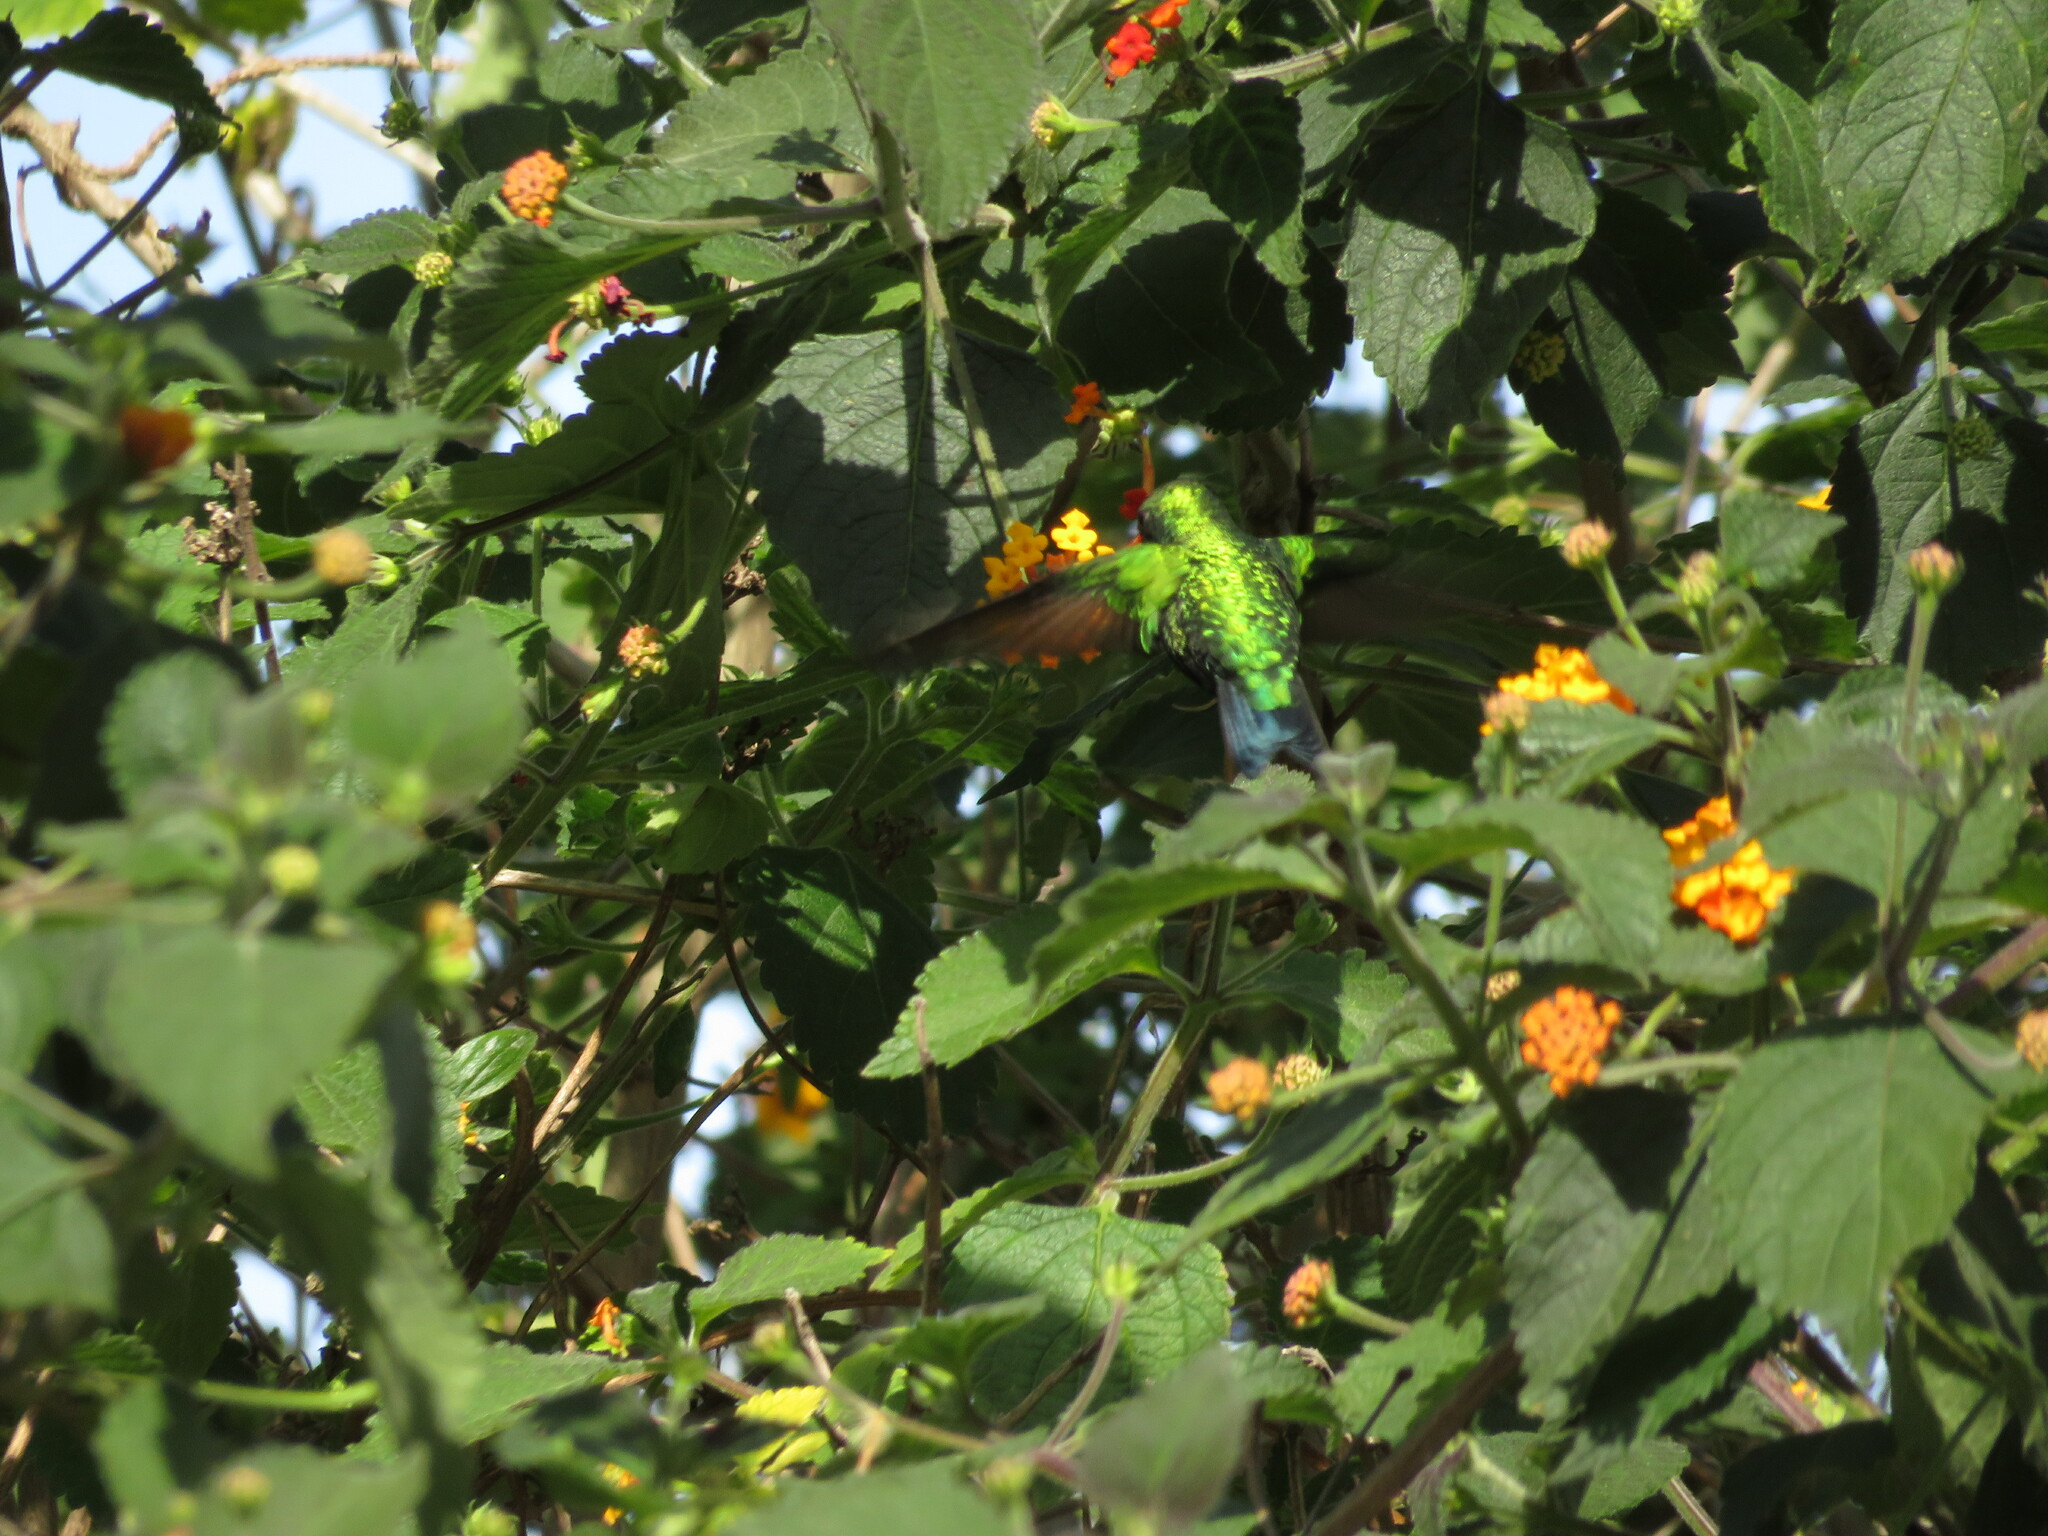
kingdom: Animalia
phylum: Chordata
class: Aves
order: Apodiformes
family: Trochilidae
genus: Chlorostilbon
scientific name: Chlorostilbon lucidus
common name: Glittering-bellied emerald
